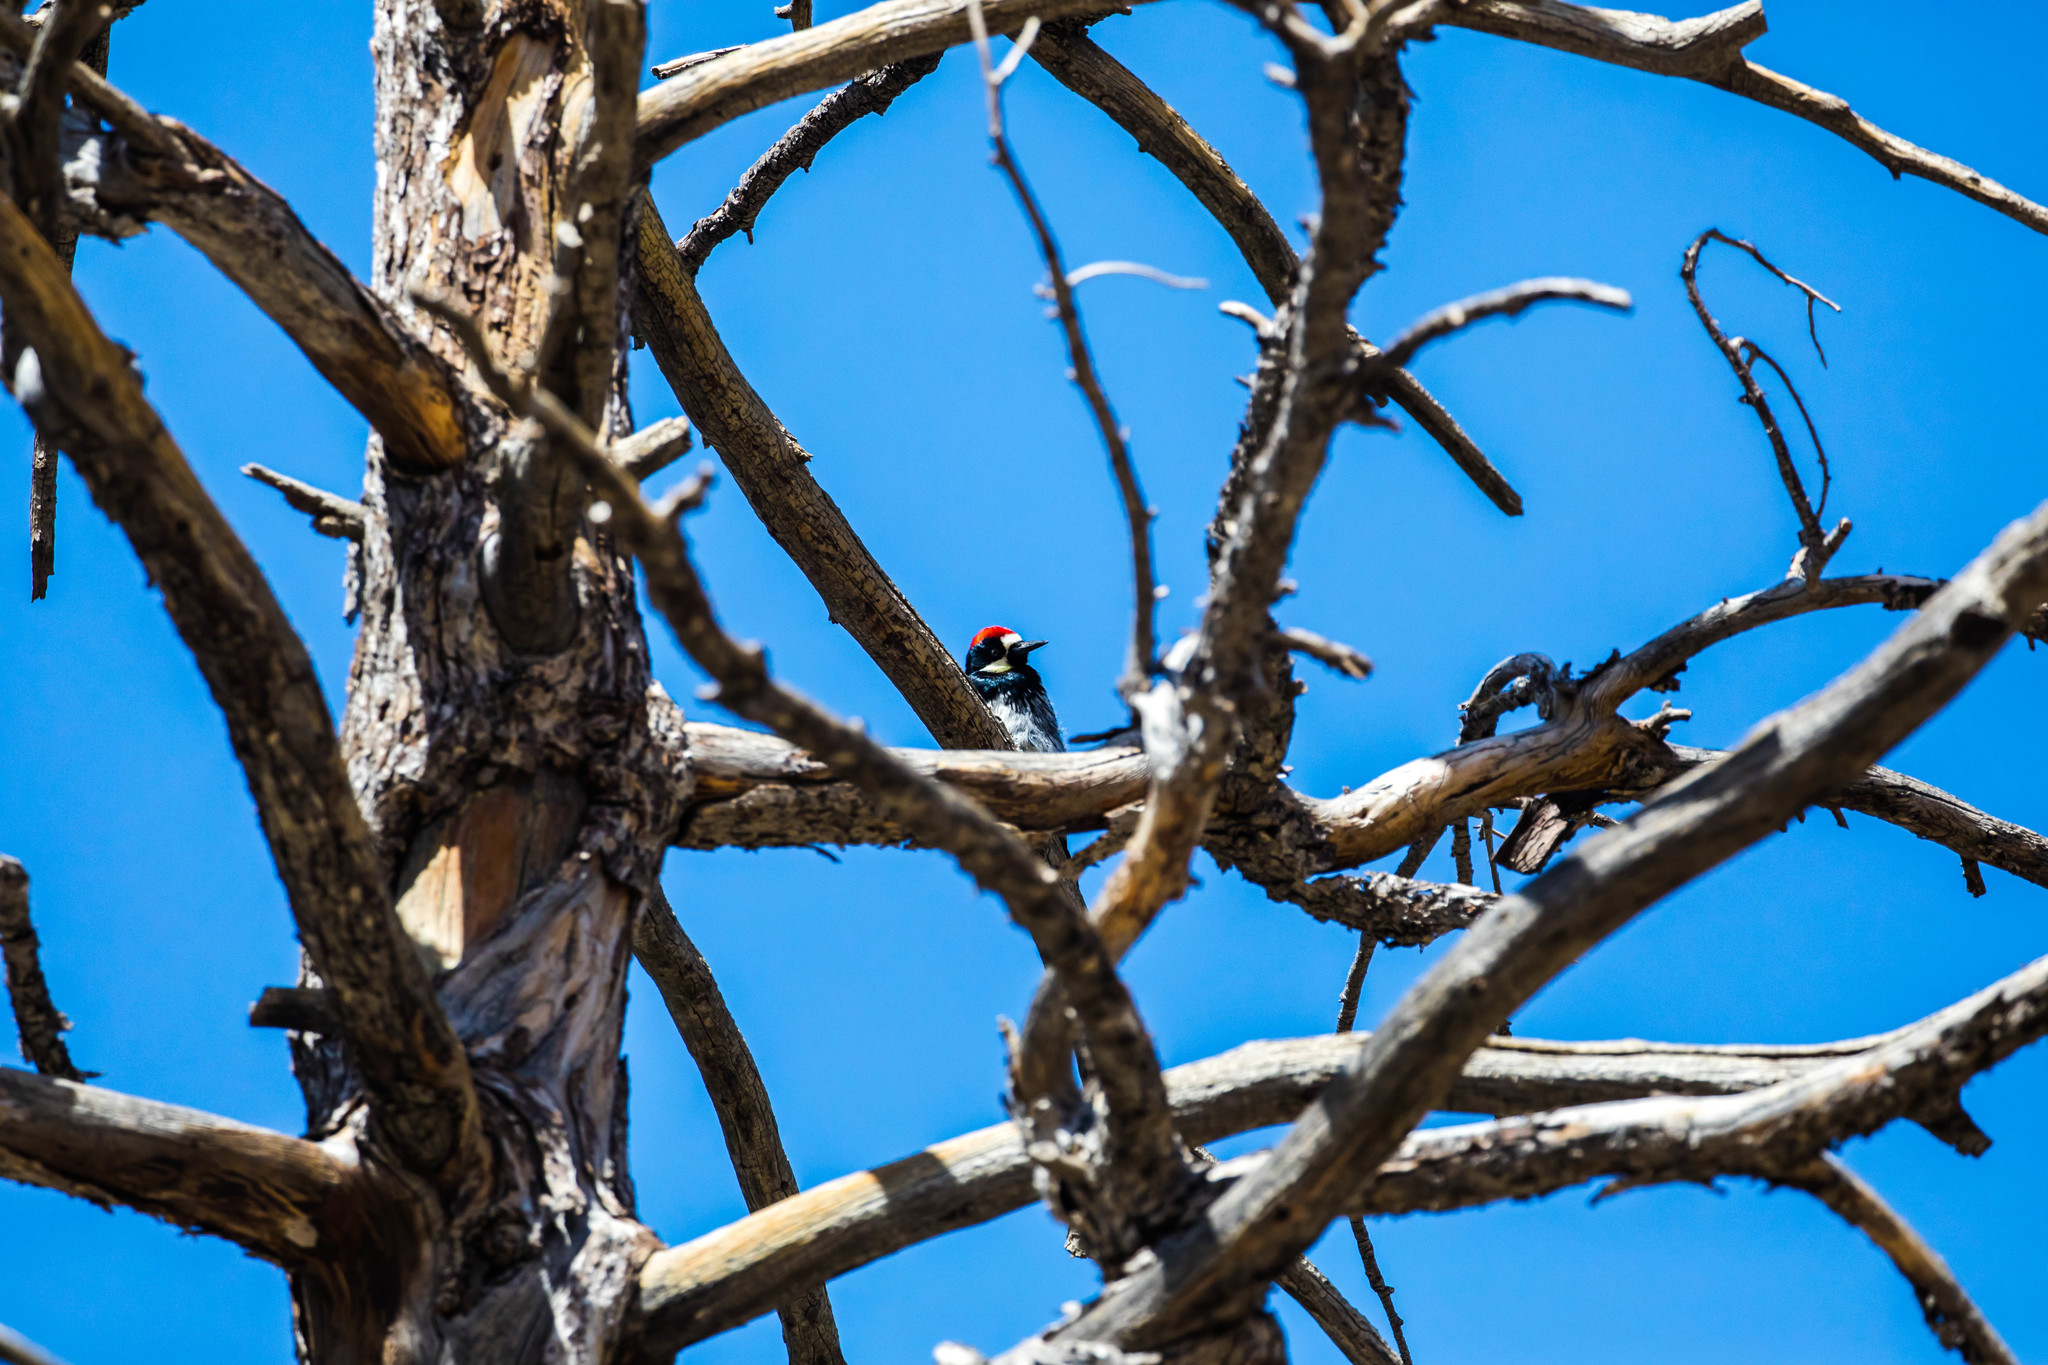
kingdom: Animalia
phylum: Chordata
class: Aves
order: Piciformes
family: Picidae
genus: Melanerpes
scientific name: Melanerpes formicivorus
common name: Acorn woodpecker
